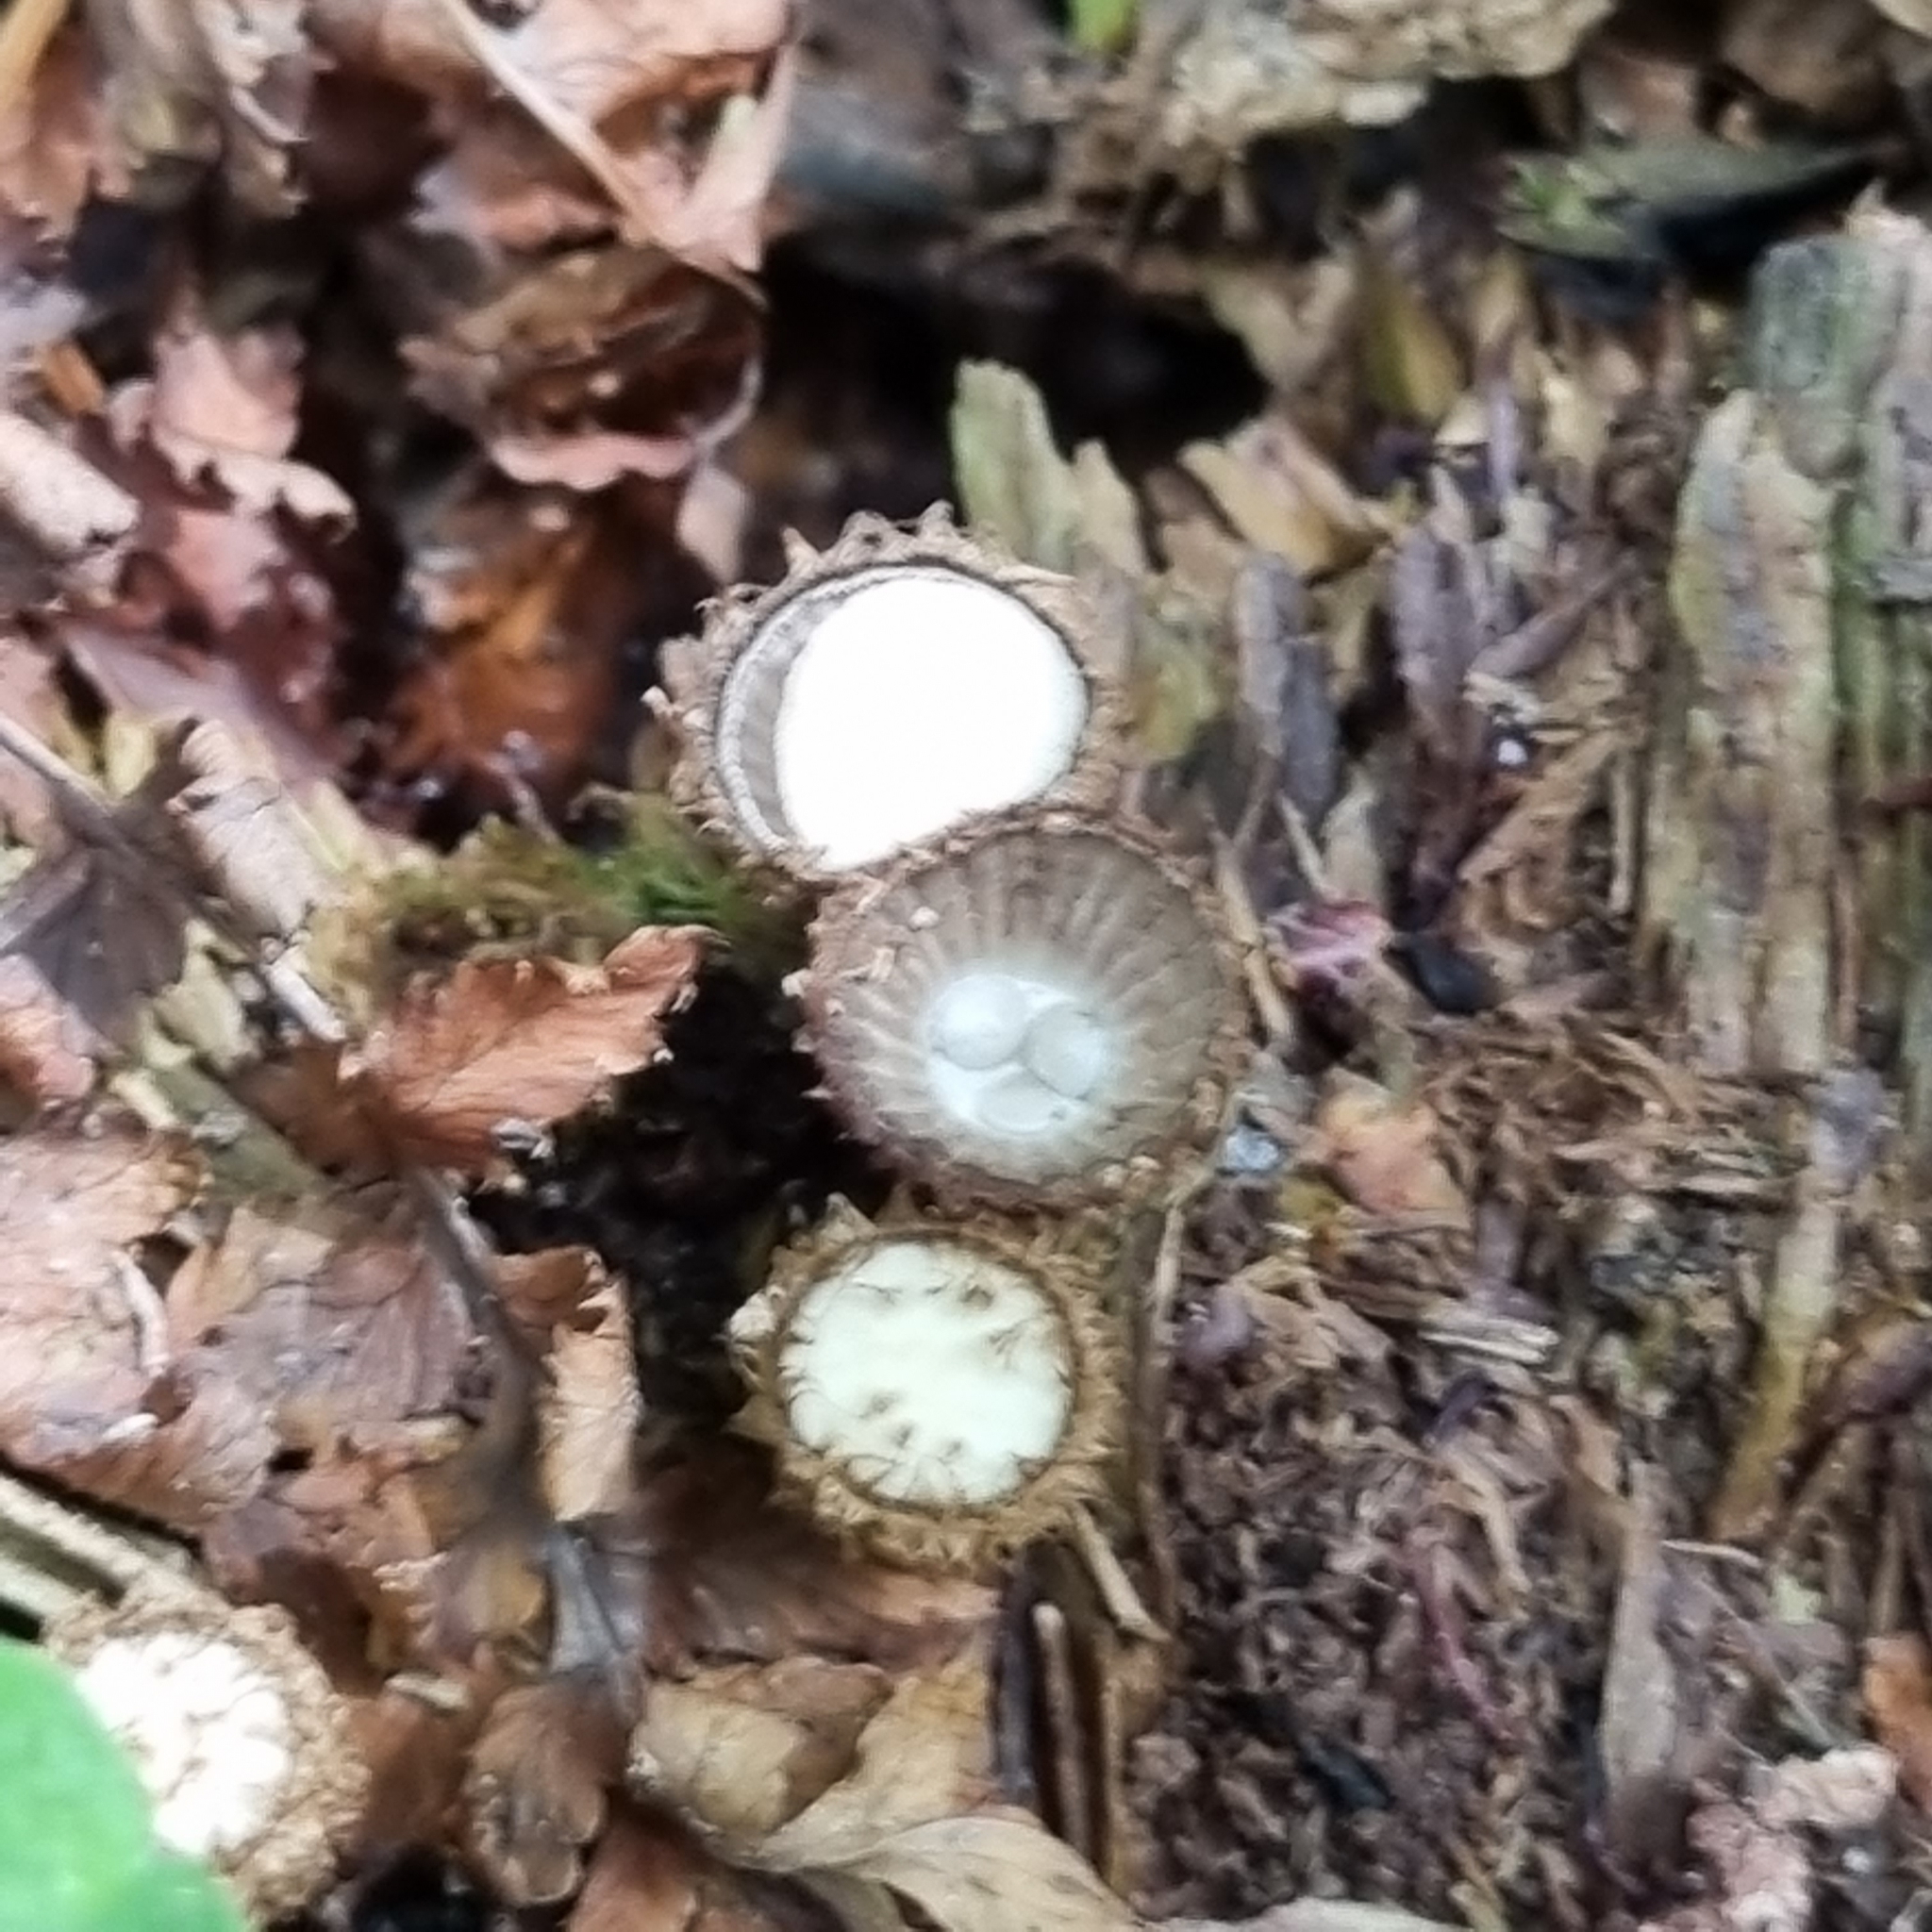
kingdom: Fungi
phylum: Basidiomycota
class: Agaricomycetes
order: Agaricales
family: Agaricaceae
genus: Cyathus
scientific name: Cyathus striatus
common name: Fluted bird's nest
